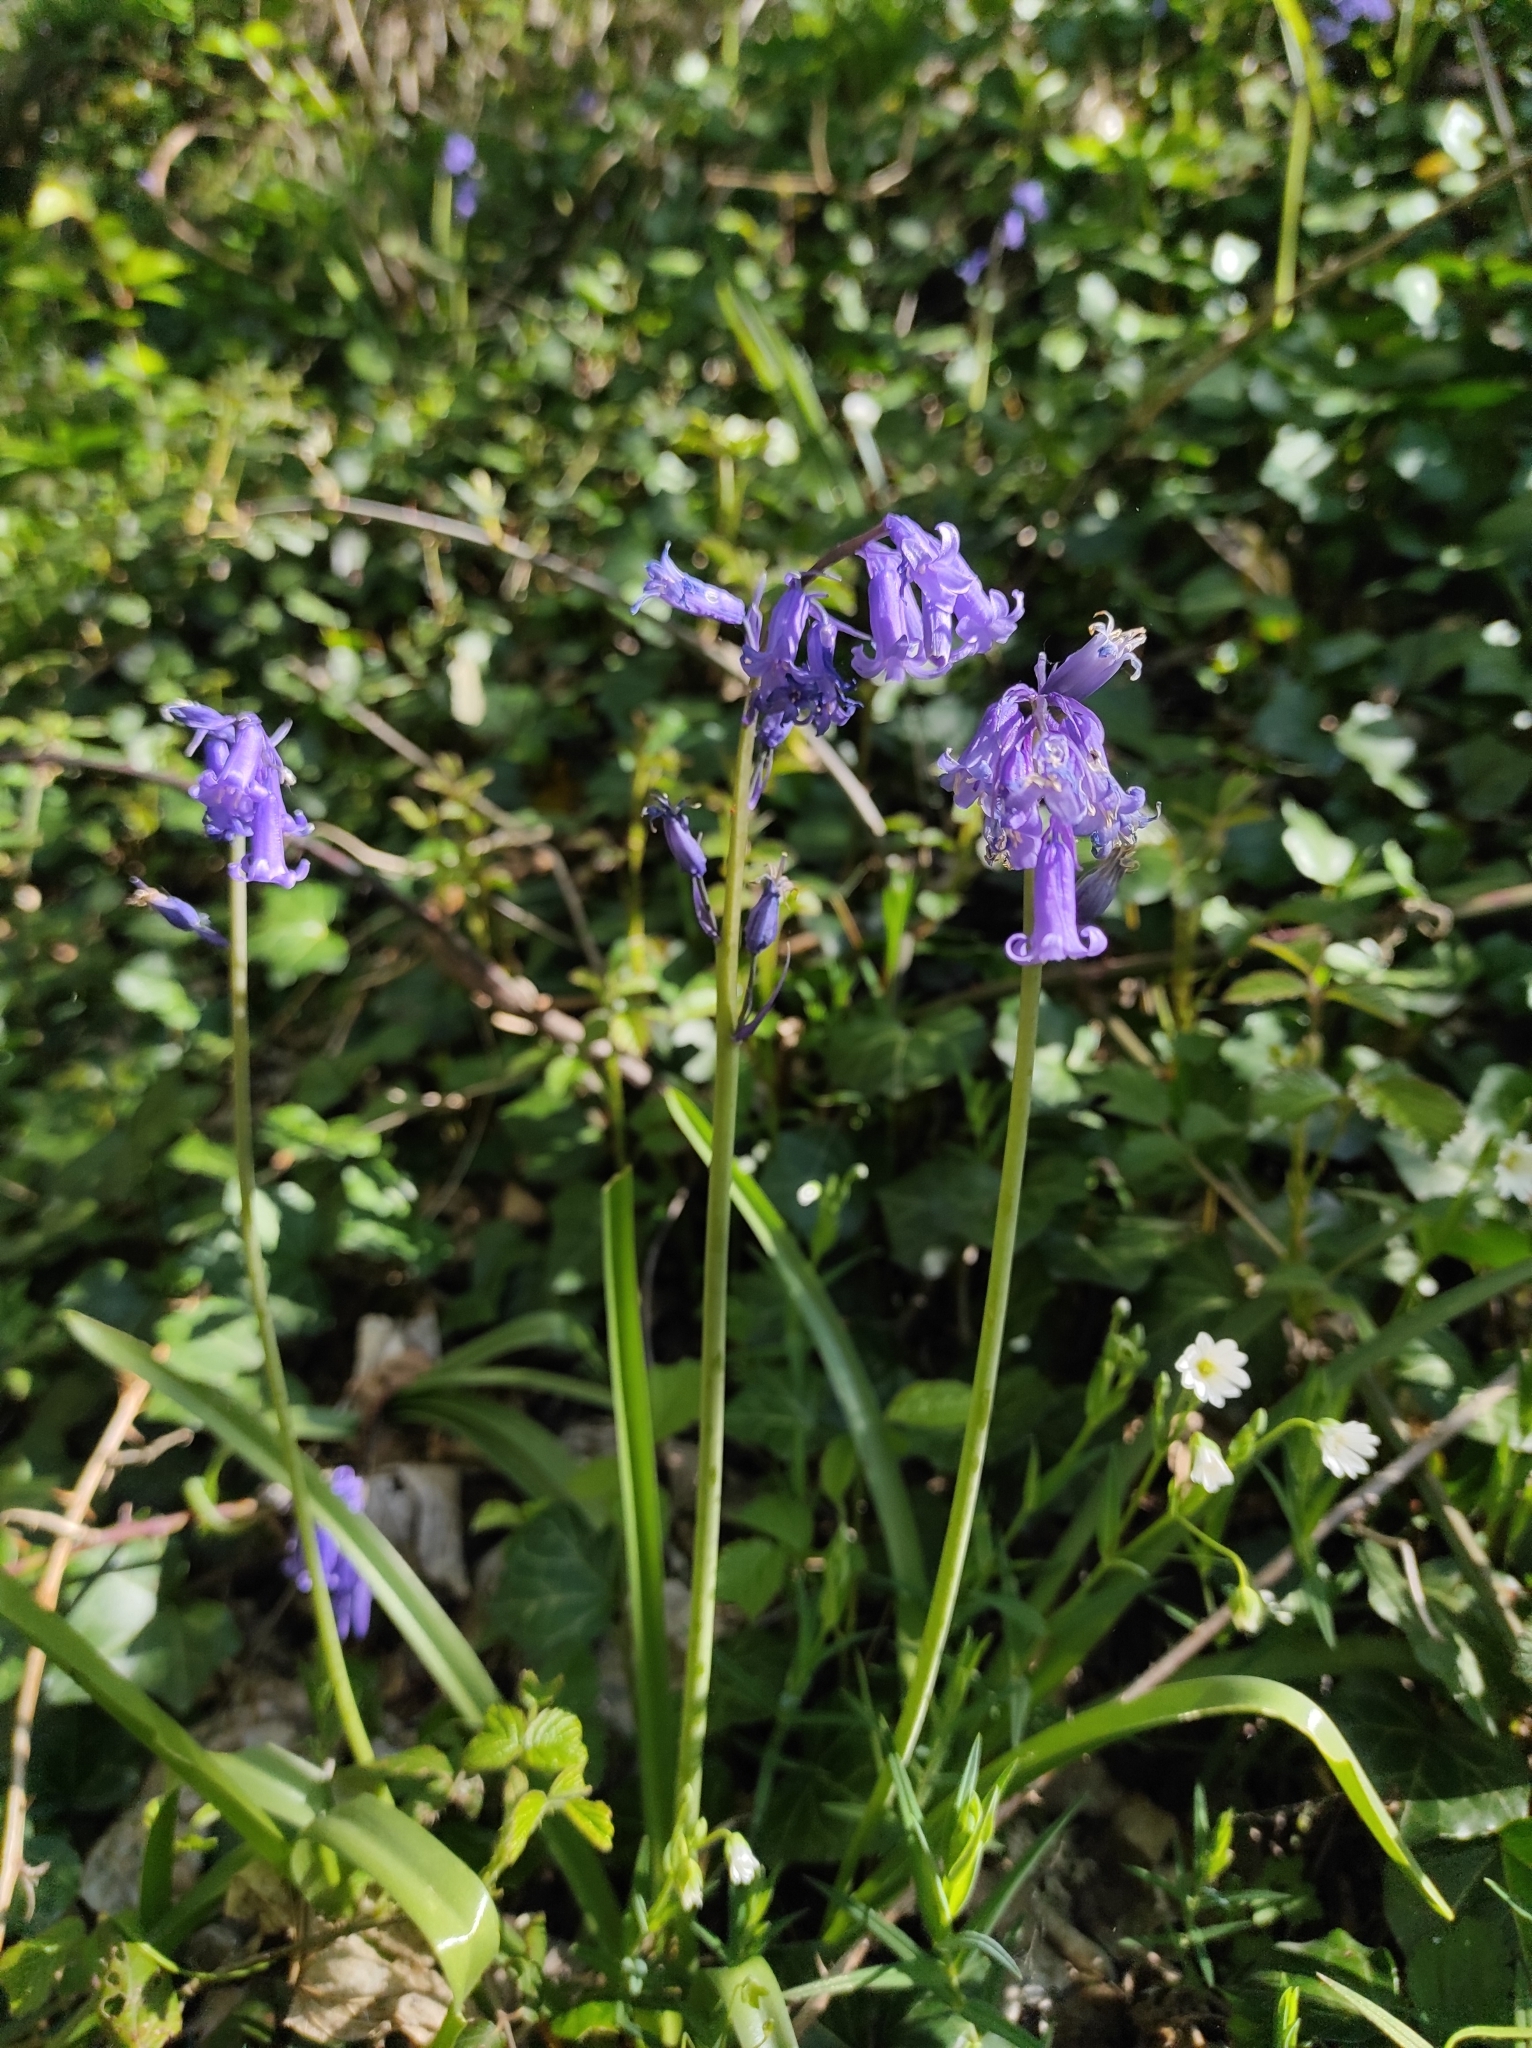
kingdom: Plantae
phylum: Tracheophyta
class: Liliopsida
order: Asparagales
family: Asparagaceae
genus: Hyacinthoides
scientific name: Hyacinthoides non-scripta
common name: Bluebell
